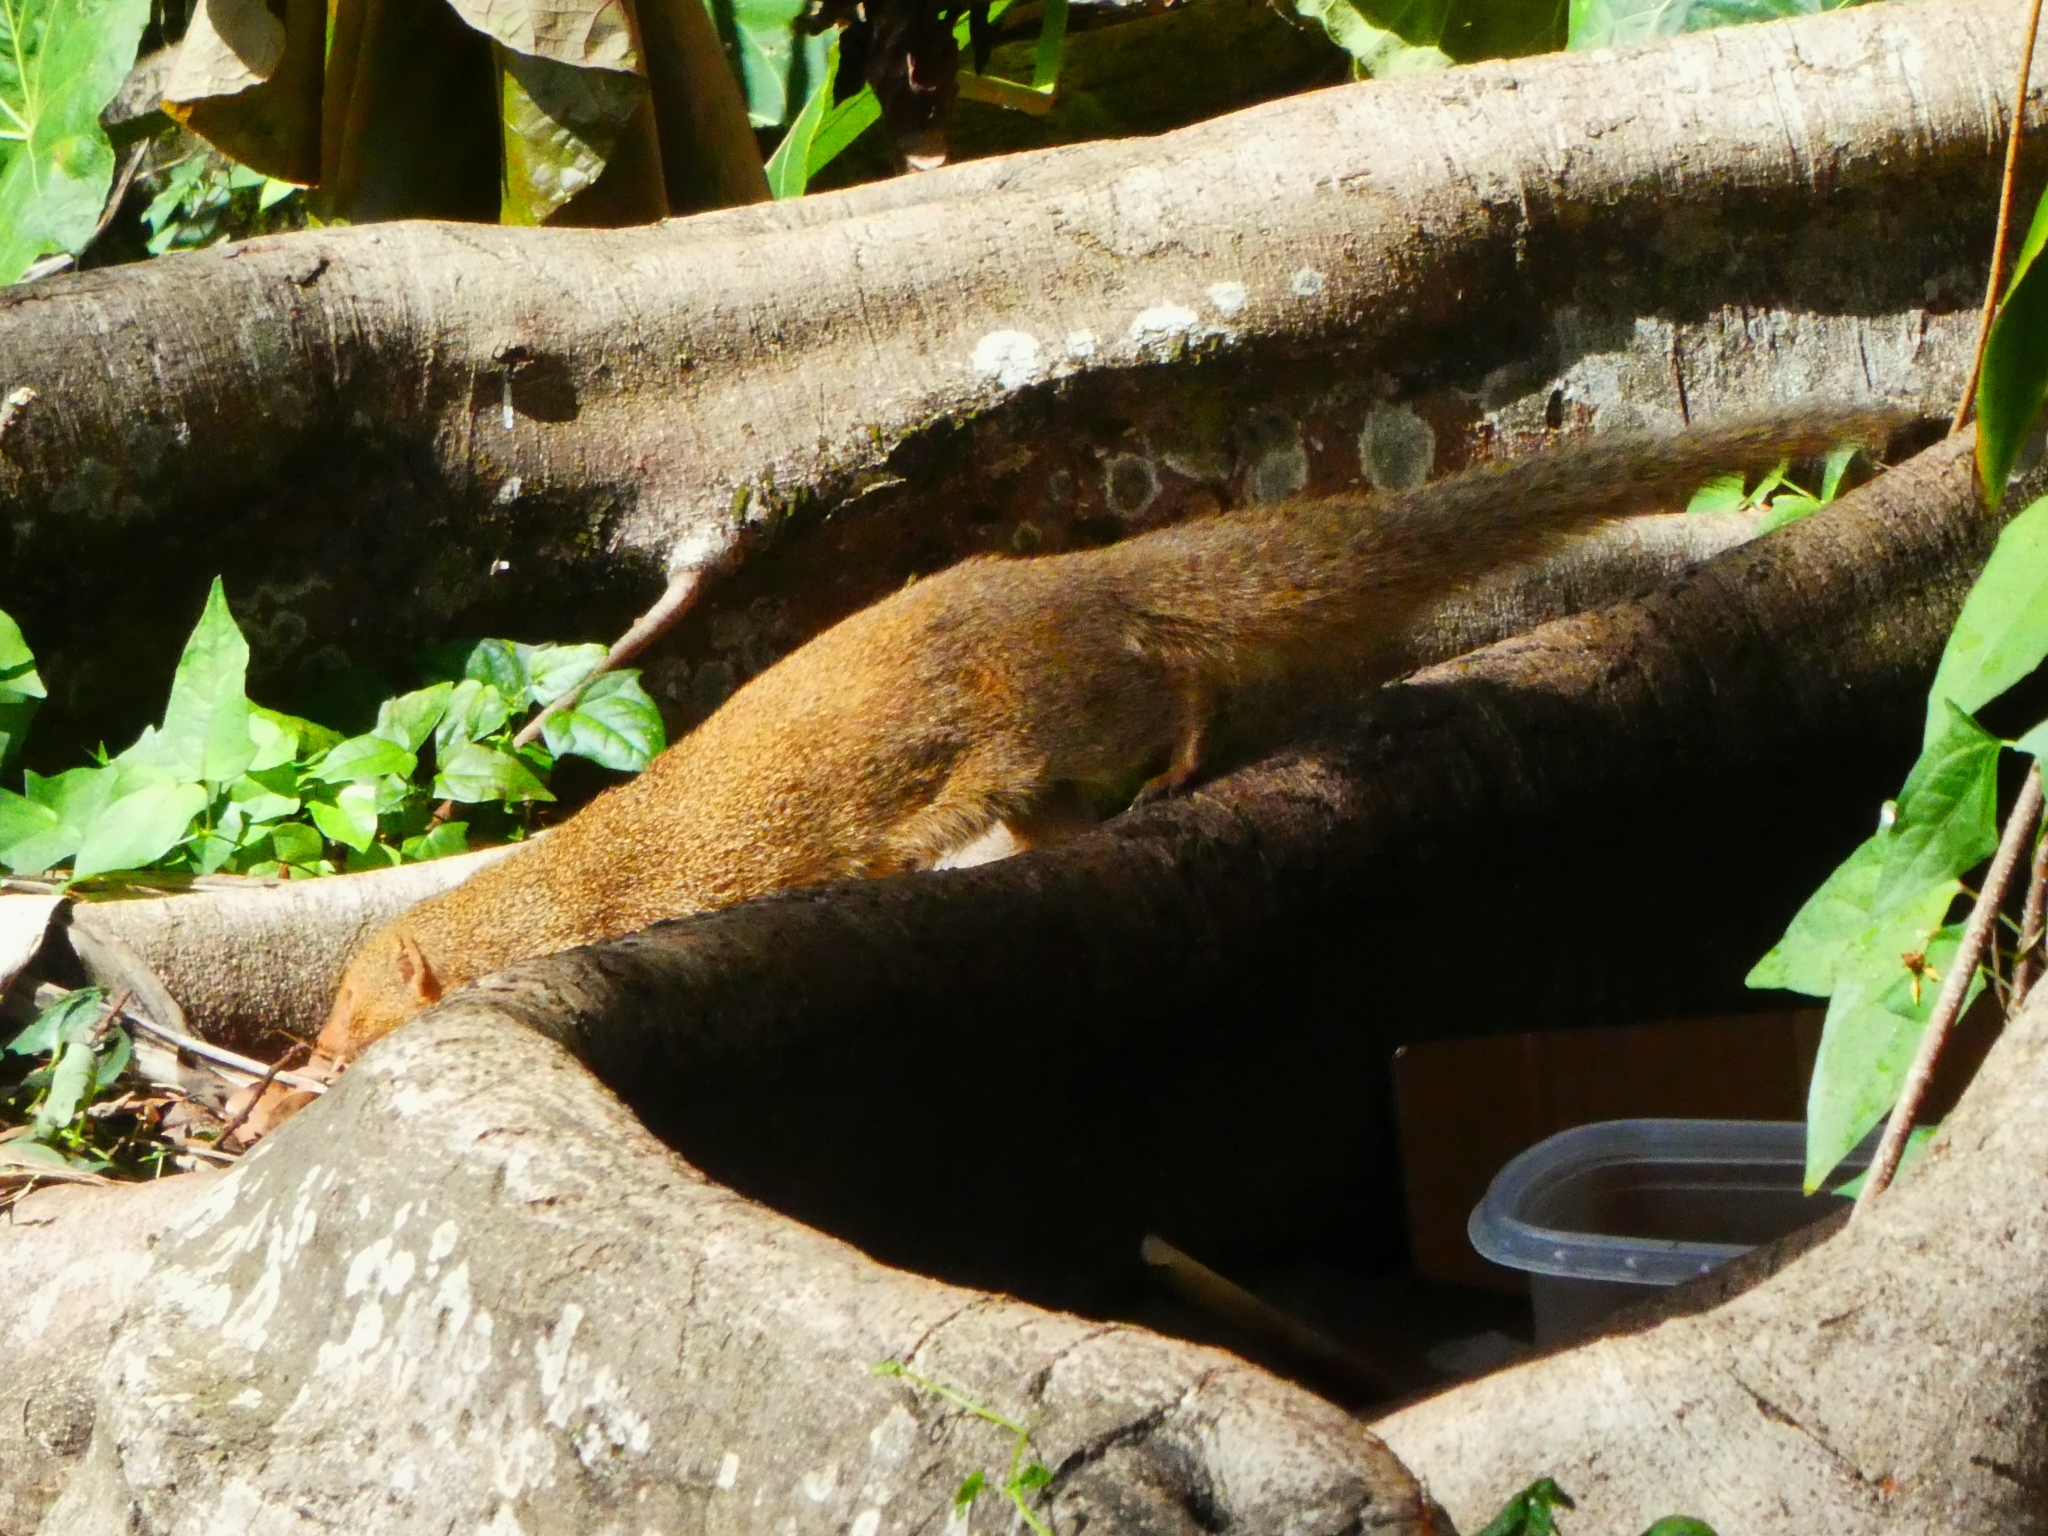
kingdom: Animalia
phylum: Chordata
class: Mammalia
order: Carnivora
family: Herpestidae
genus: Herpestes
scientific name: Herpestes javanicus
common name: Small asian mongoose
